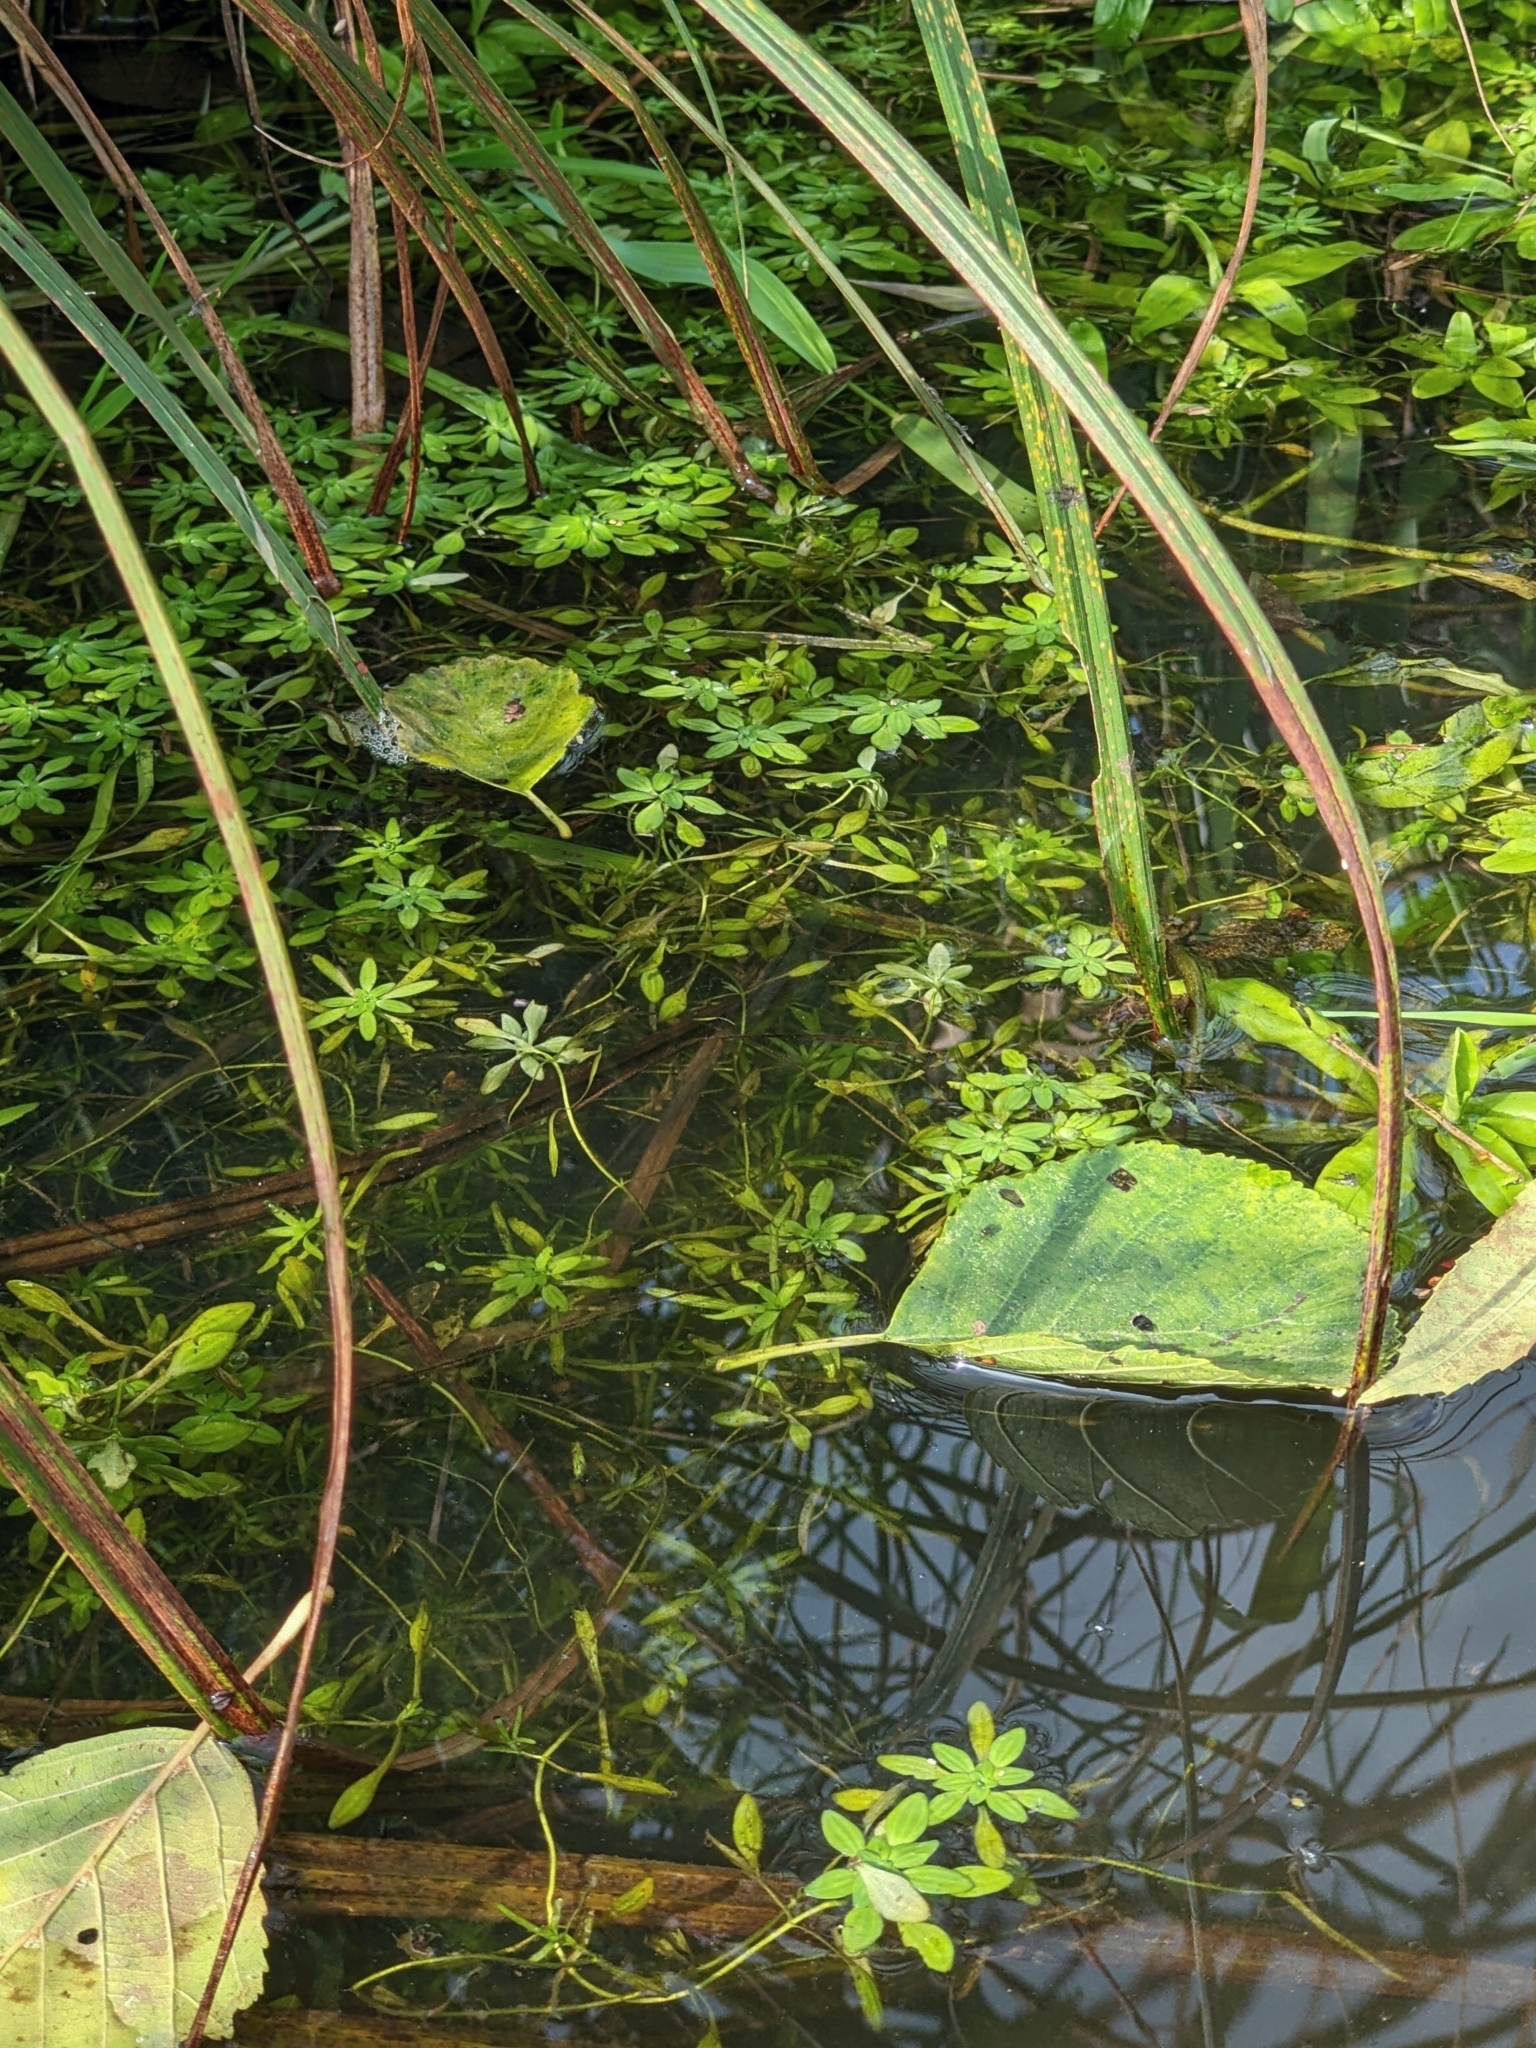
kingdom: Plantae
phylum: Tracheophyta
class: Magnoliopsida
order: Lamiales
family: Plantaginaceae
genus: Callitriche
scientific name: Callitriche palustris
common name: Spring water-starwort
